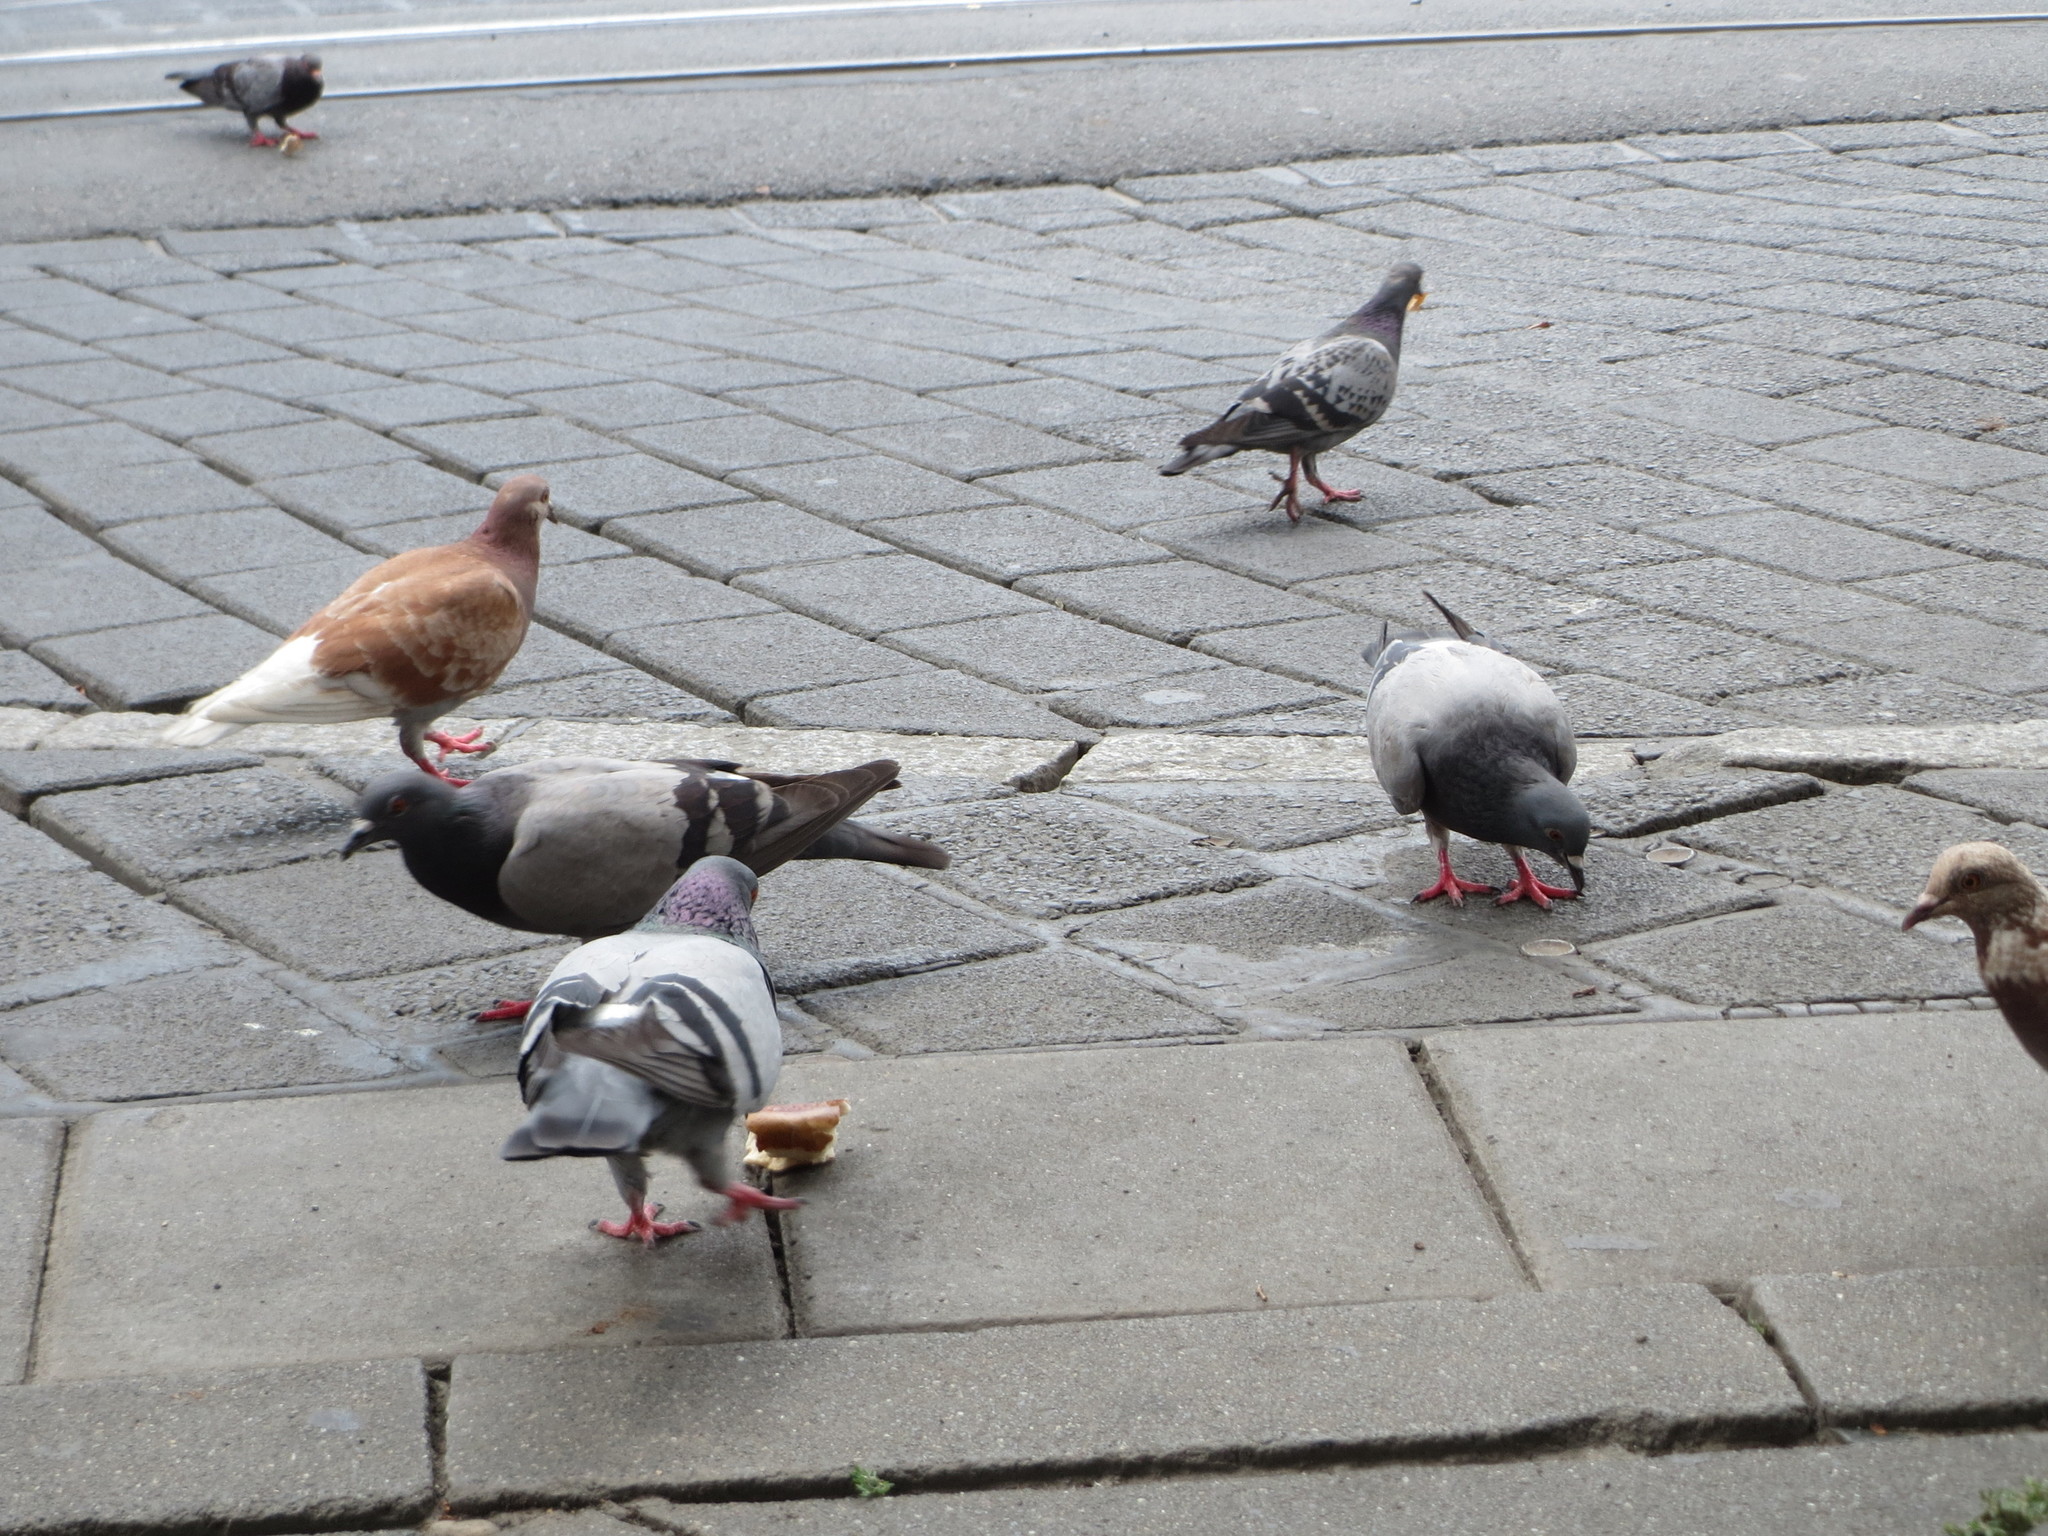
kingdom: Animalia
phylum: Chordata
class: Aves
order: Columbiformes
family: Columbidae
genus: Columba
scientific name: Columba livia
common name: Rock pigeon
